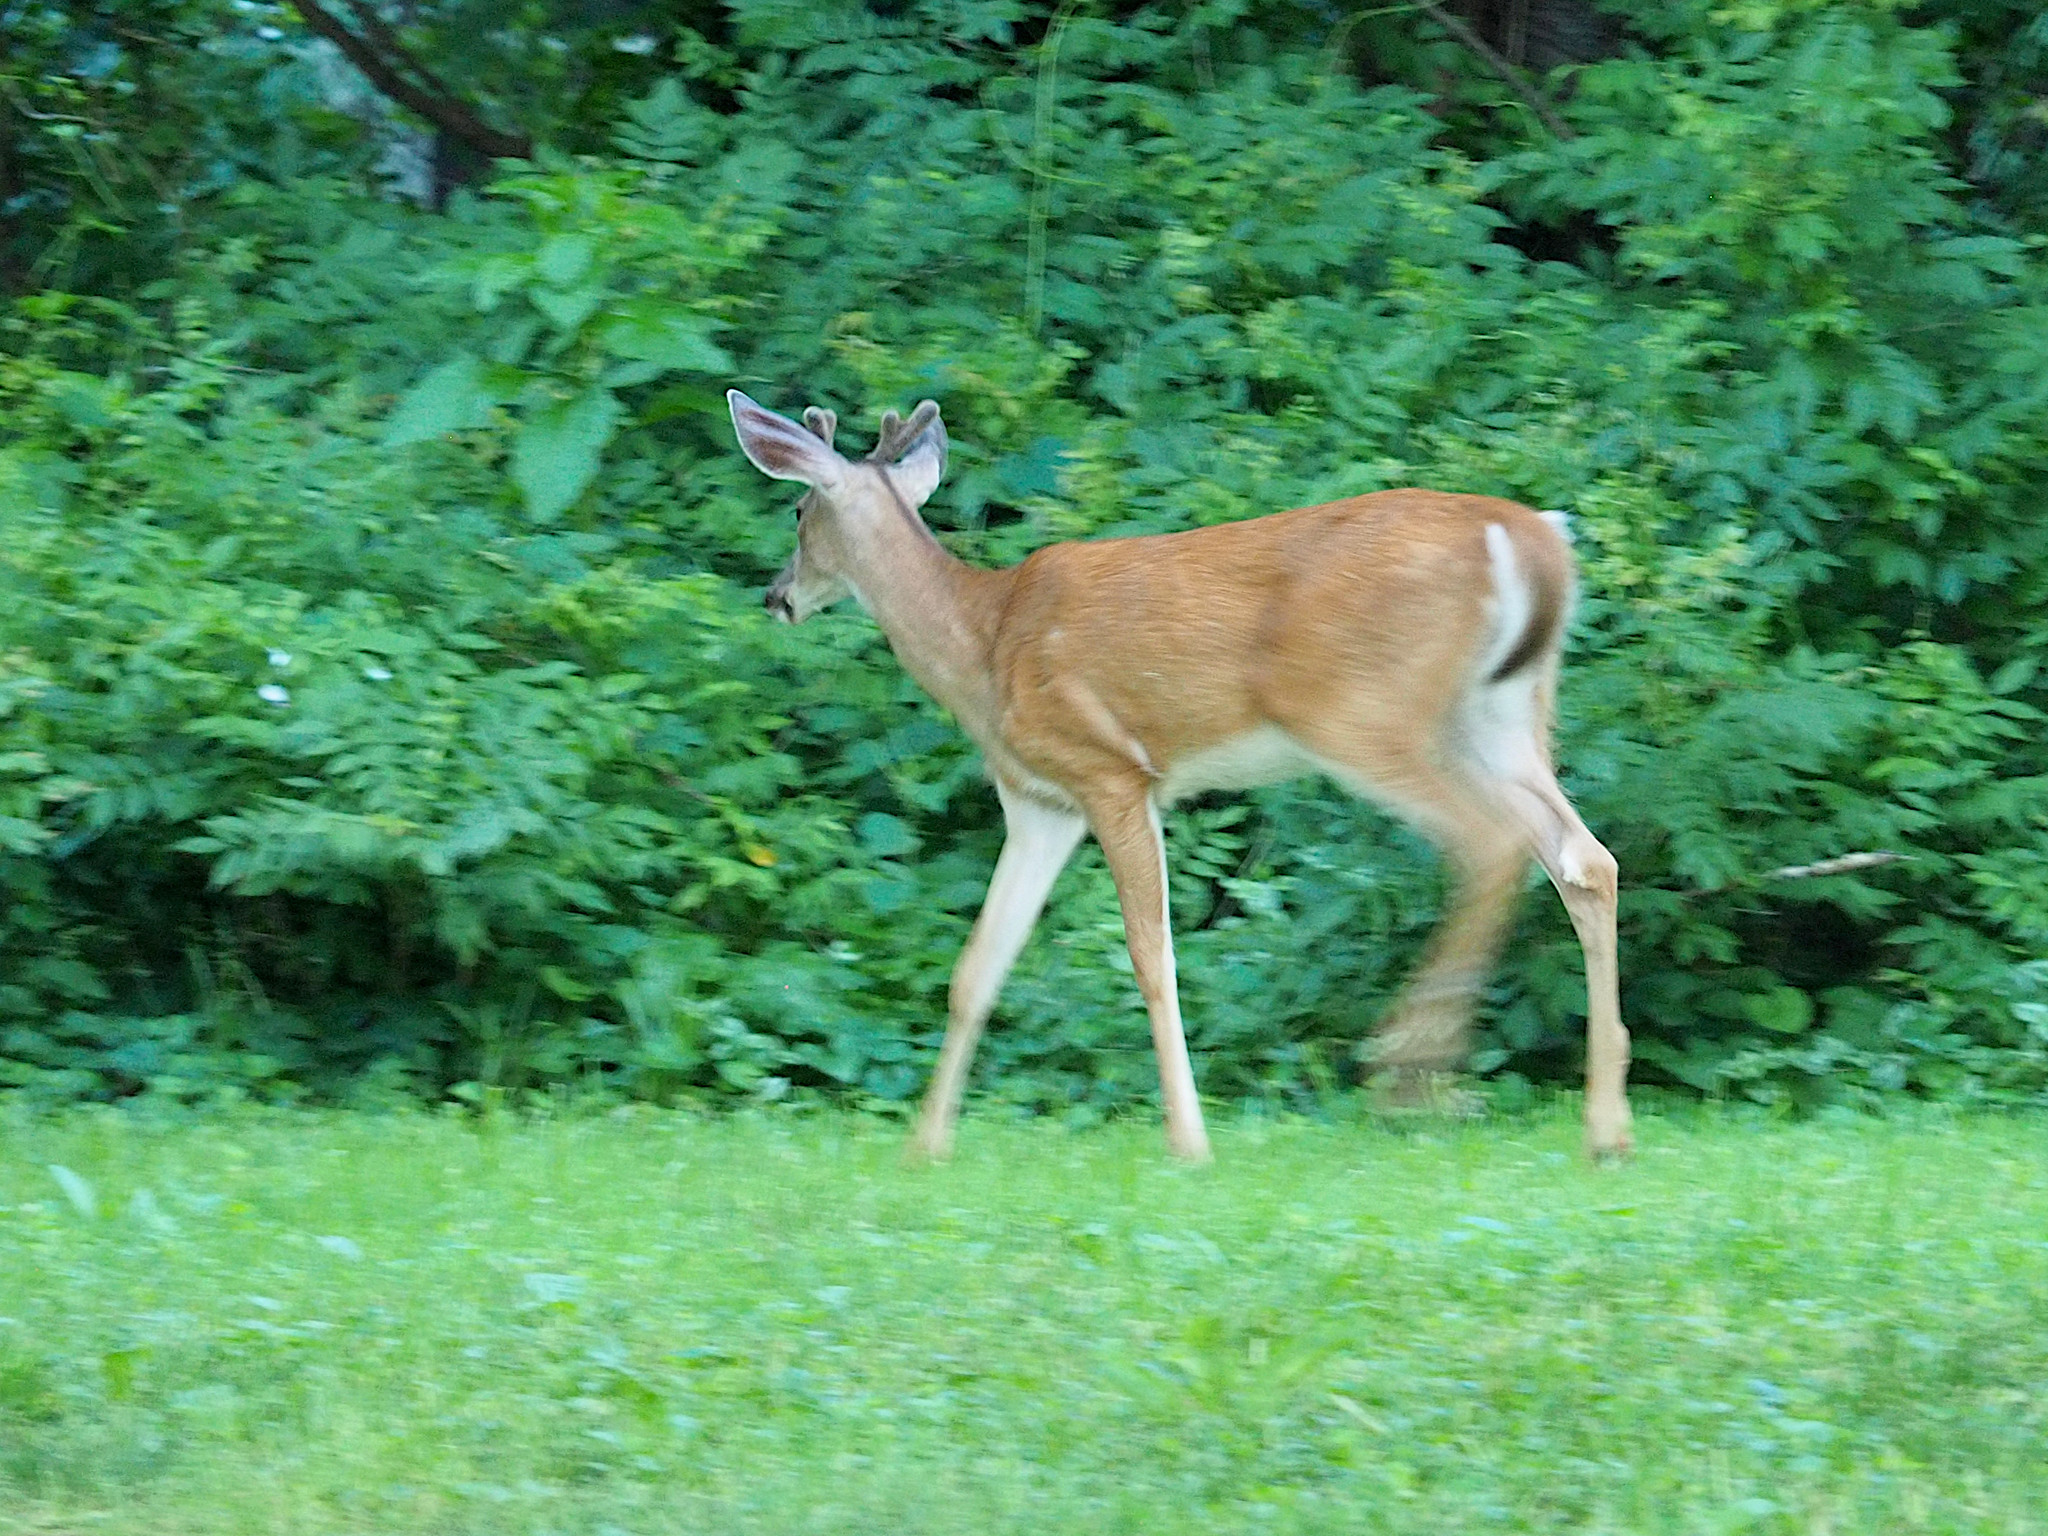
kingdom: Animalia
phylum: Chordata
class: Mammalia
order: Artiodactyla
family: Cervidae
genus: Odocoileus
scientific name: Odocoileus virginianus
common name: White-tailed deer
